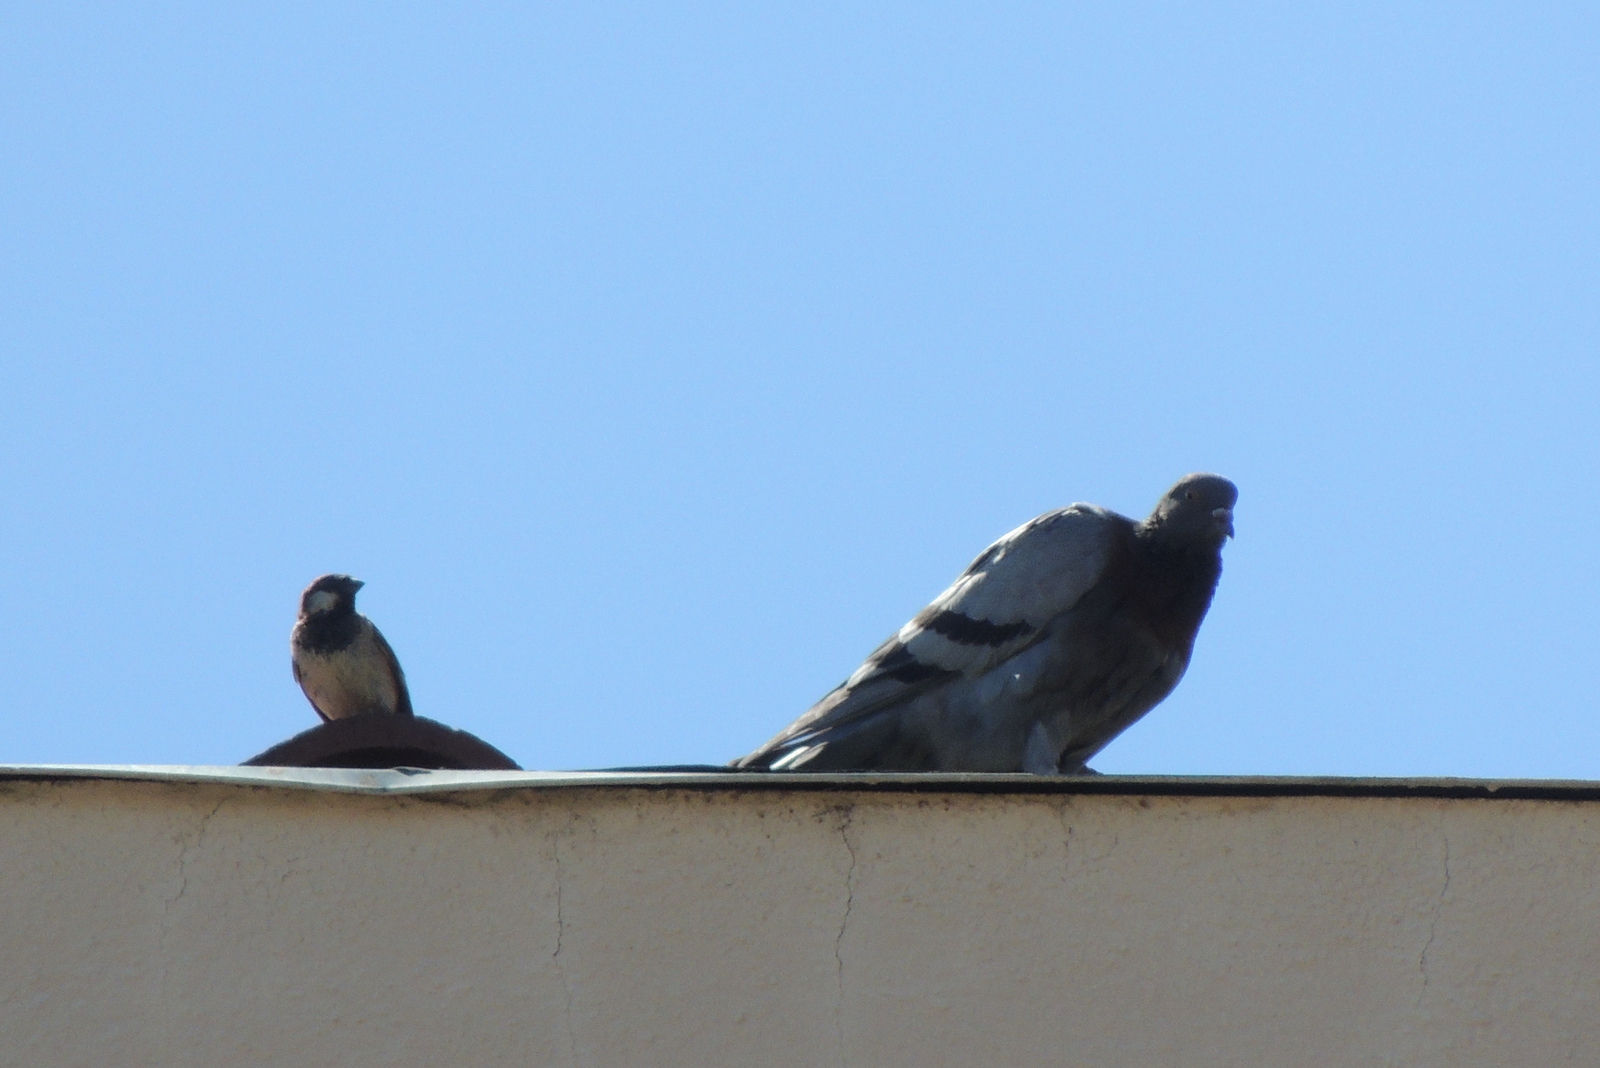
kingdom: Animalia
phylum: Chordata
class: Aves
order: Passeriformes
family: Passeridae
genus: Passer
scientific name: Passer domesticus
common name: House sparrow
